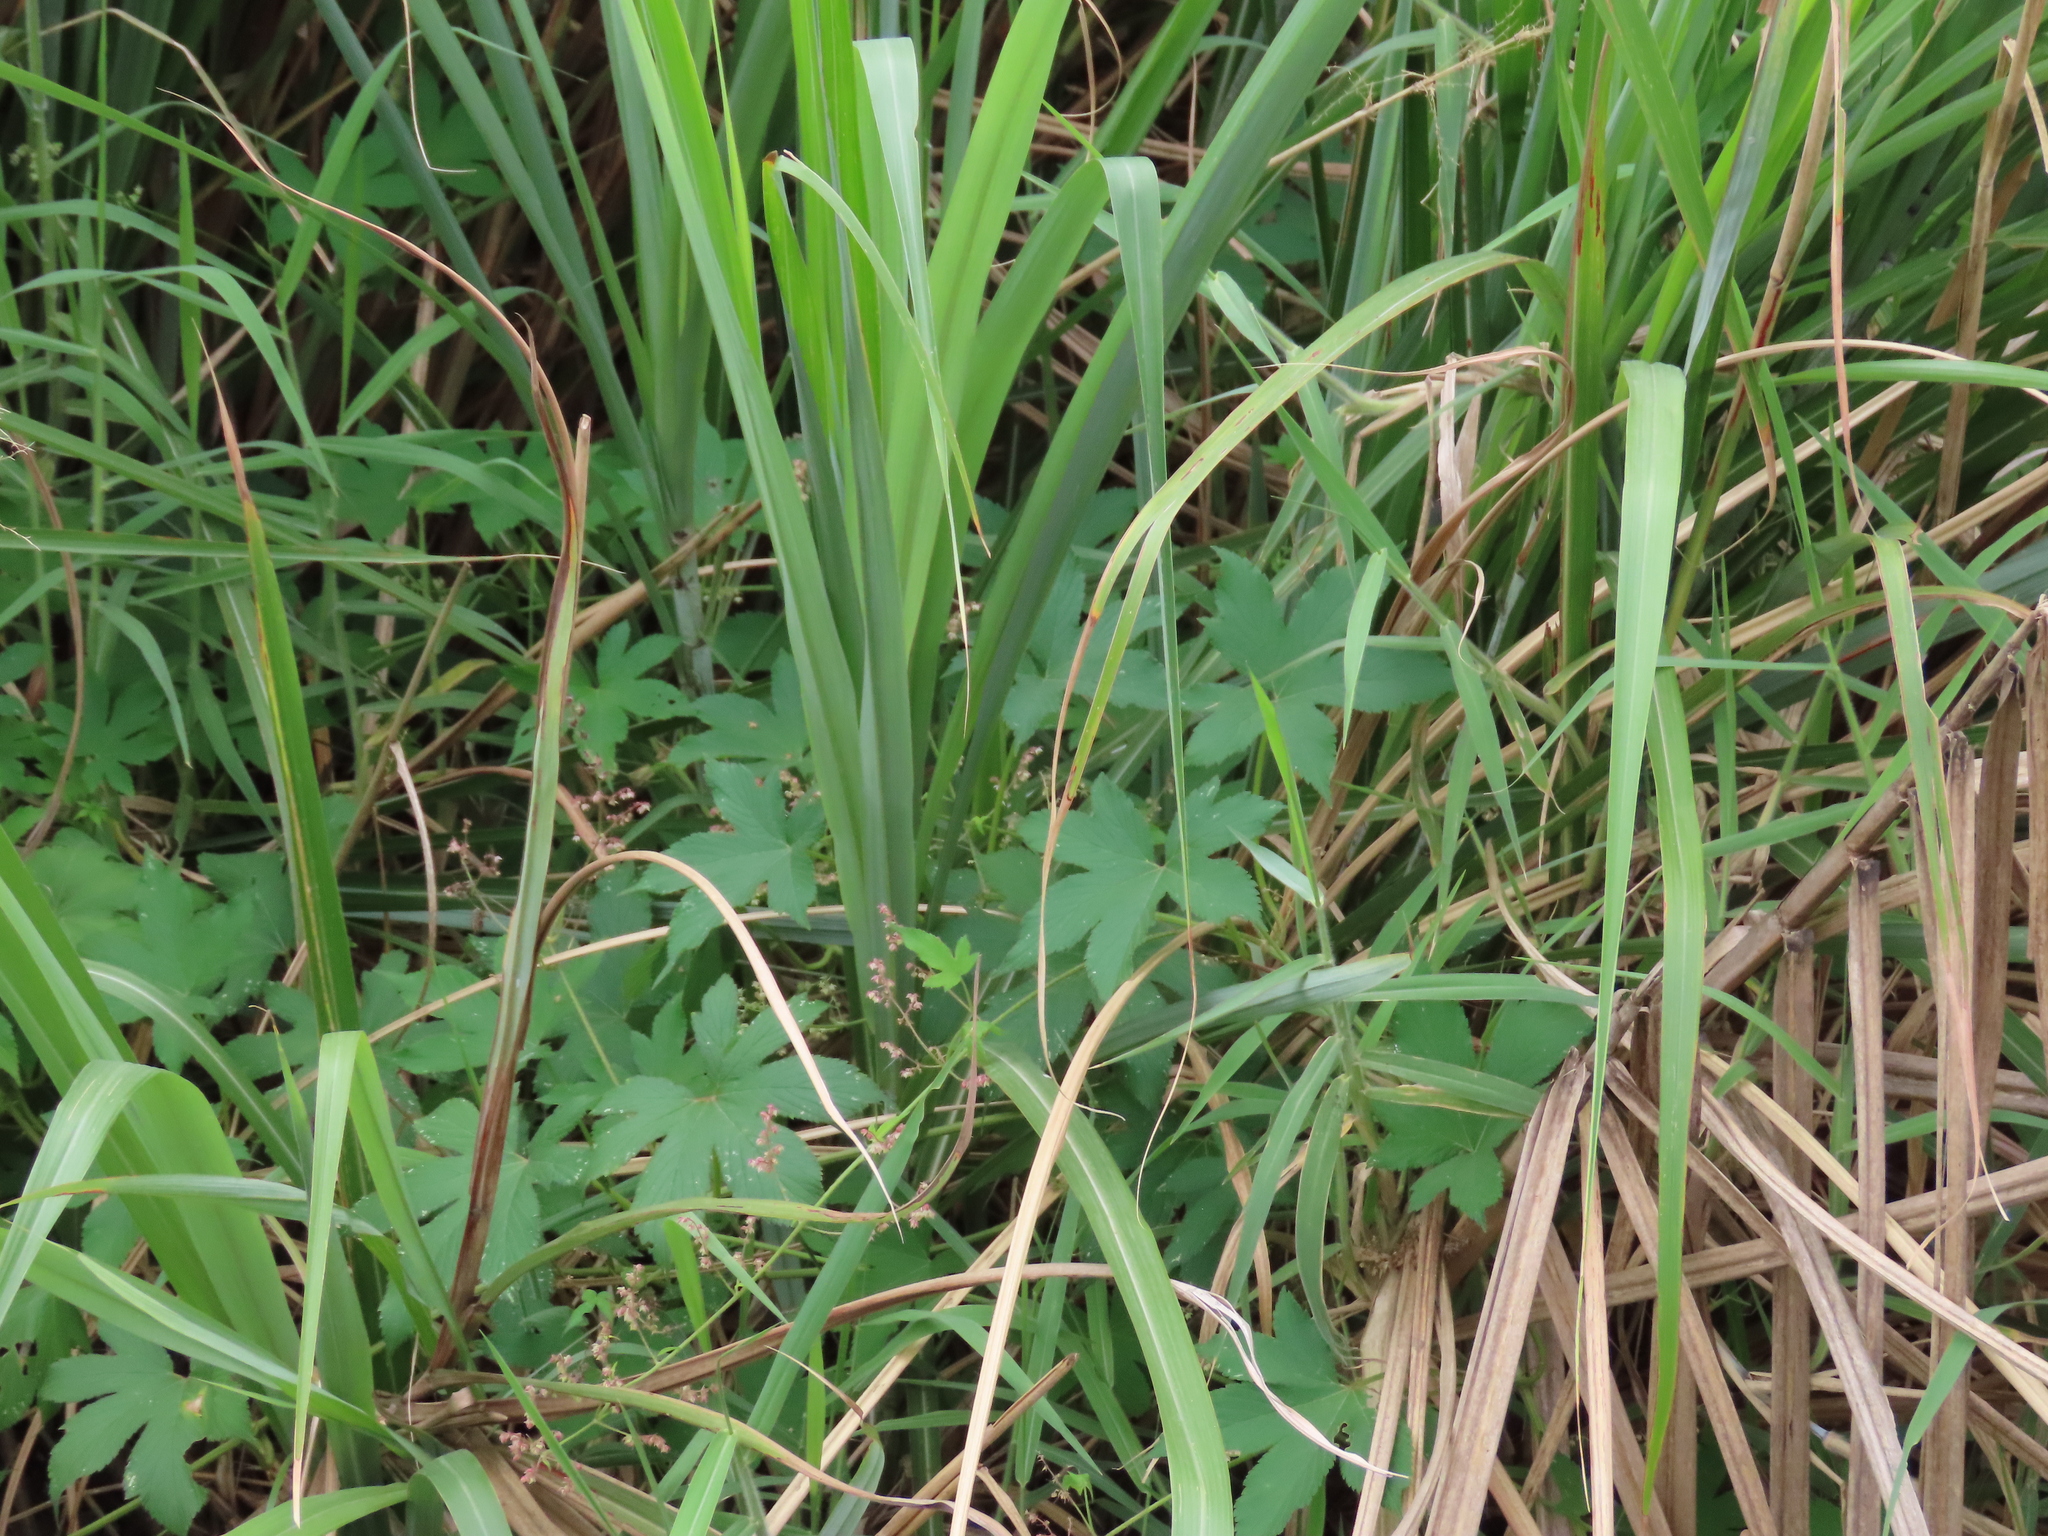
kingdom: Plantae
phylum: Tracheophyta
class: Magnoliopsida
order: Rosales
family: Cannabaceae
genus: Humulus
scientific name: Humulus scandens
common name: Japanese hop
